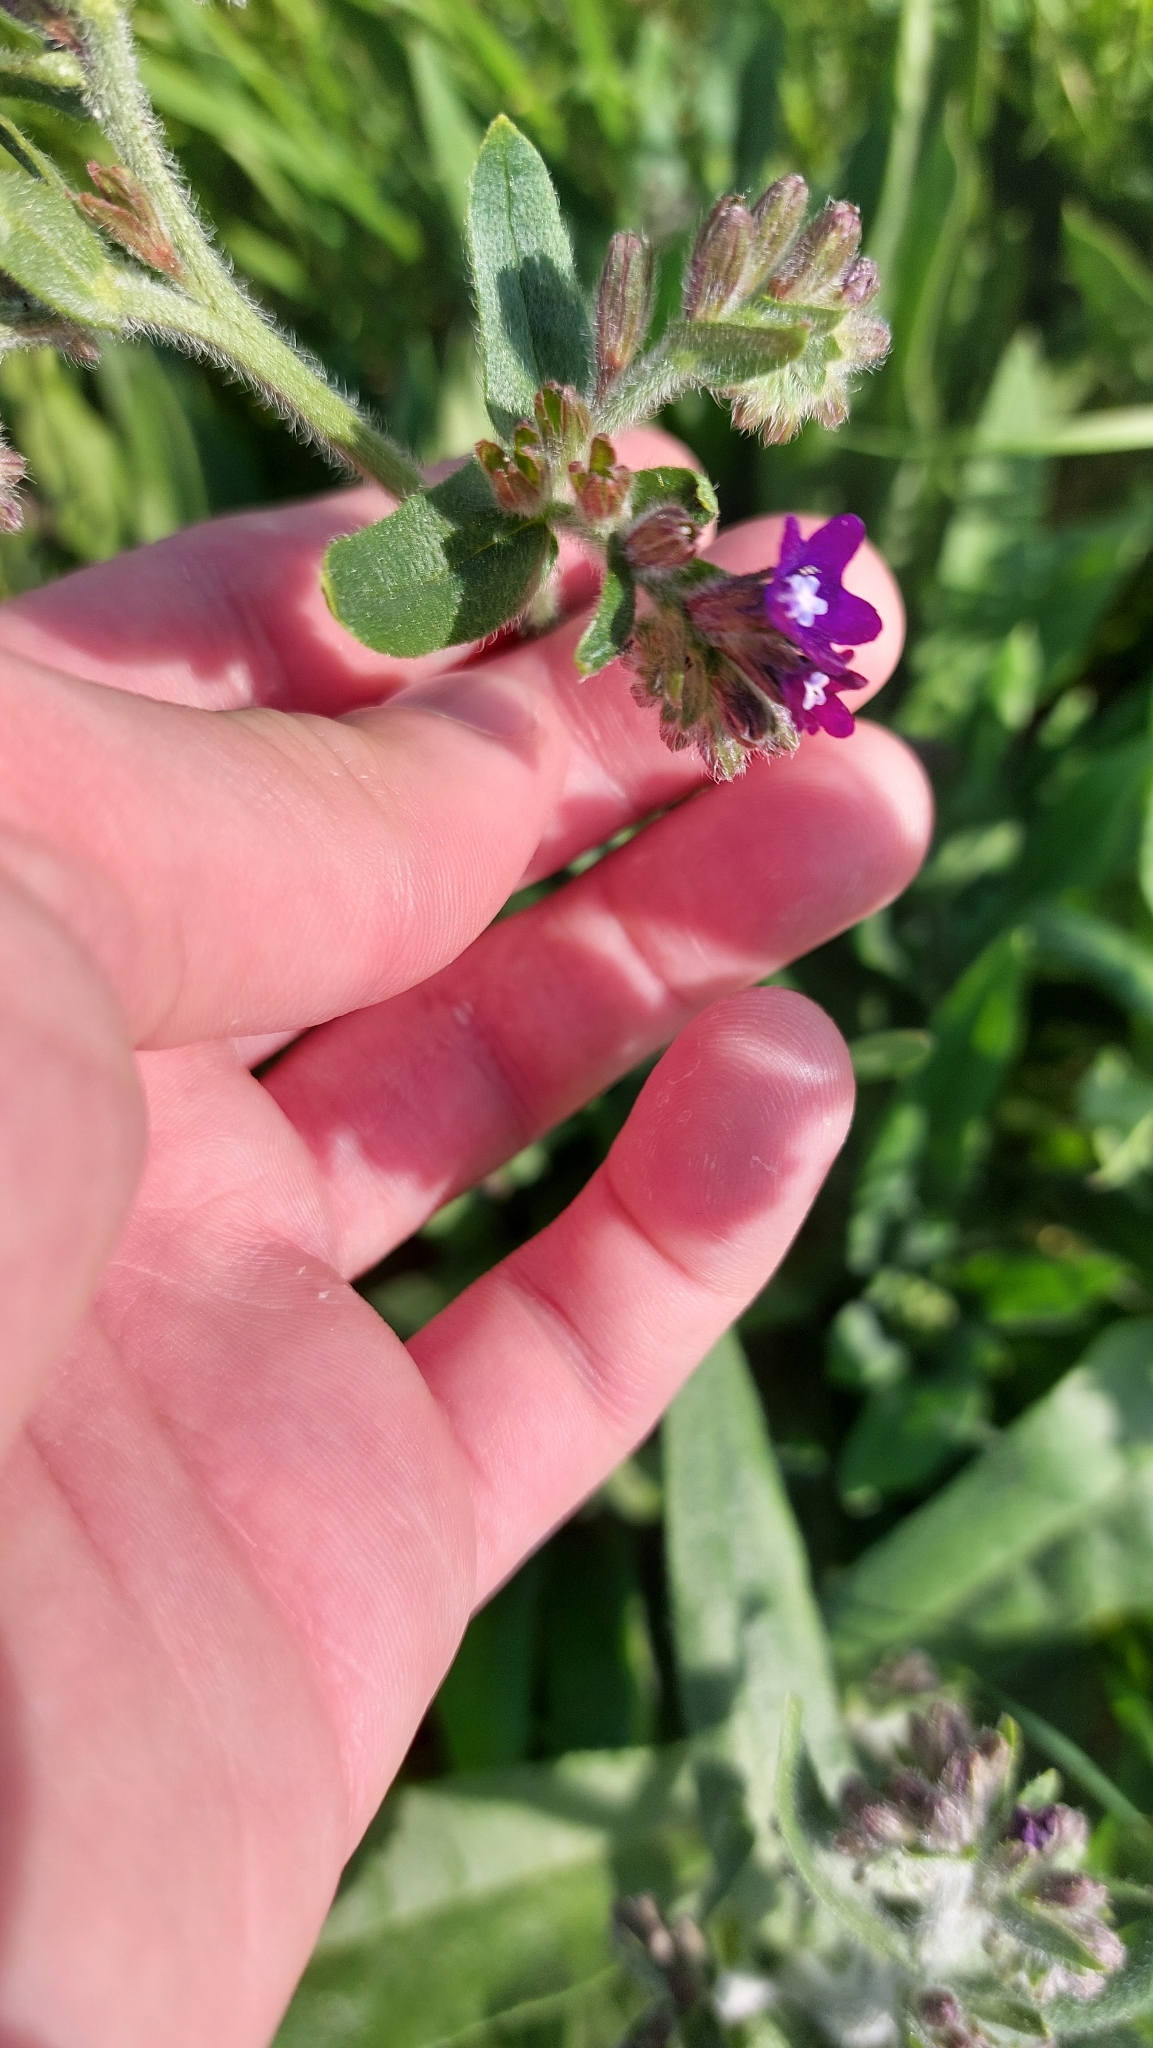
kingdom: Plantae
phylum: Tracheophyta
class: Magnoliopsida
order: Boraginales
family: Boraginaceae
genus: Anchusa
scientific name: Anchusa officinalis
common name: Alkanet
